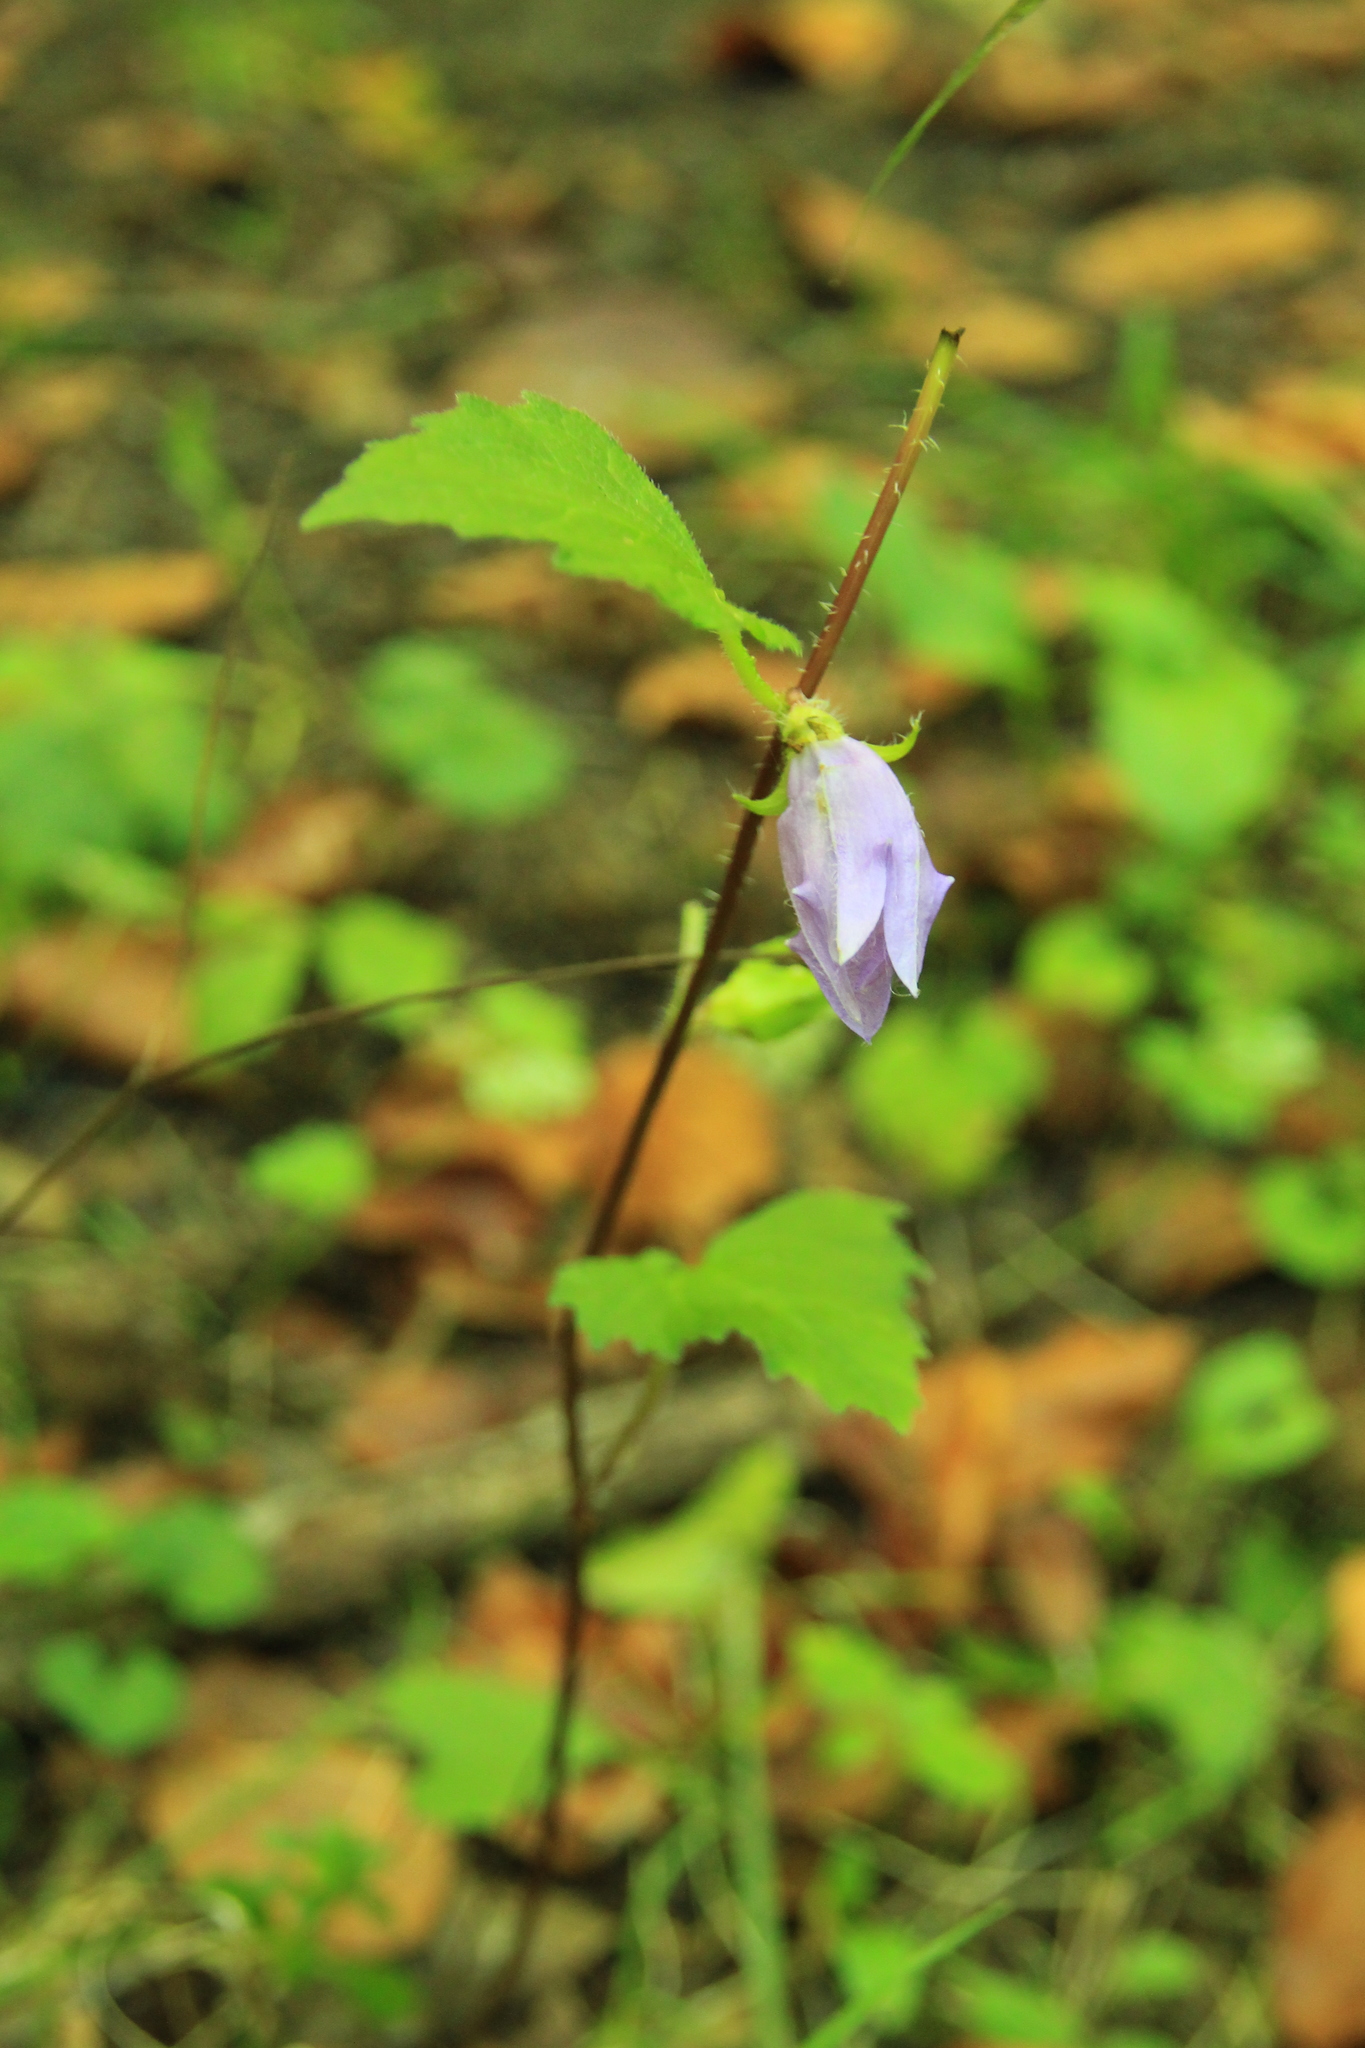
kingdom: Plantae
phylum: Tracheophyta
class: Magnoliopsida
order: Asterales
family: Campanulaceae
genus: Campanula
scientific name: Campanula trachelium
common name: Nettle-leaved bellflower
